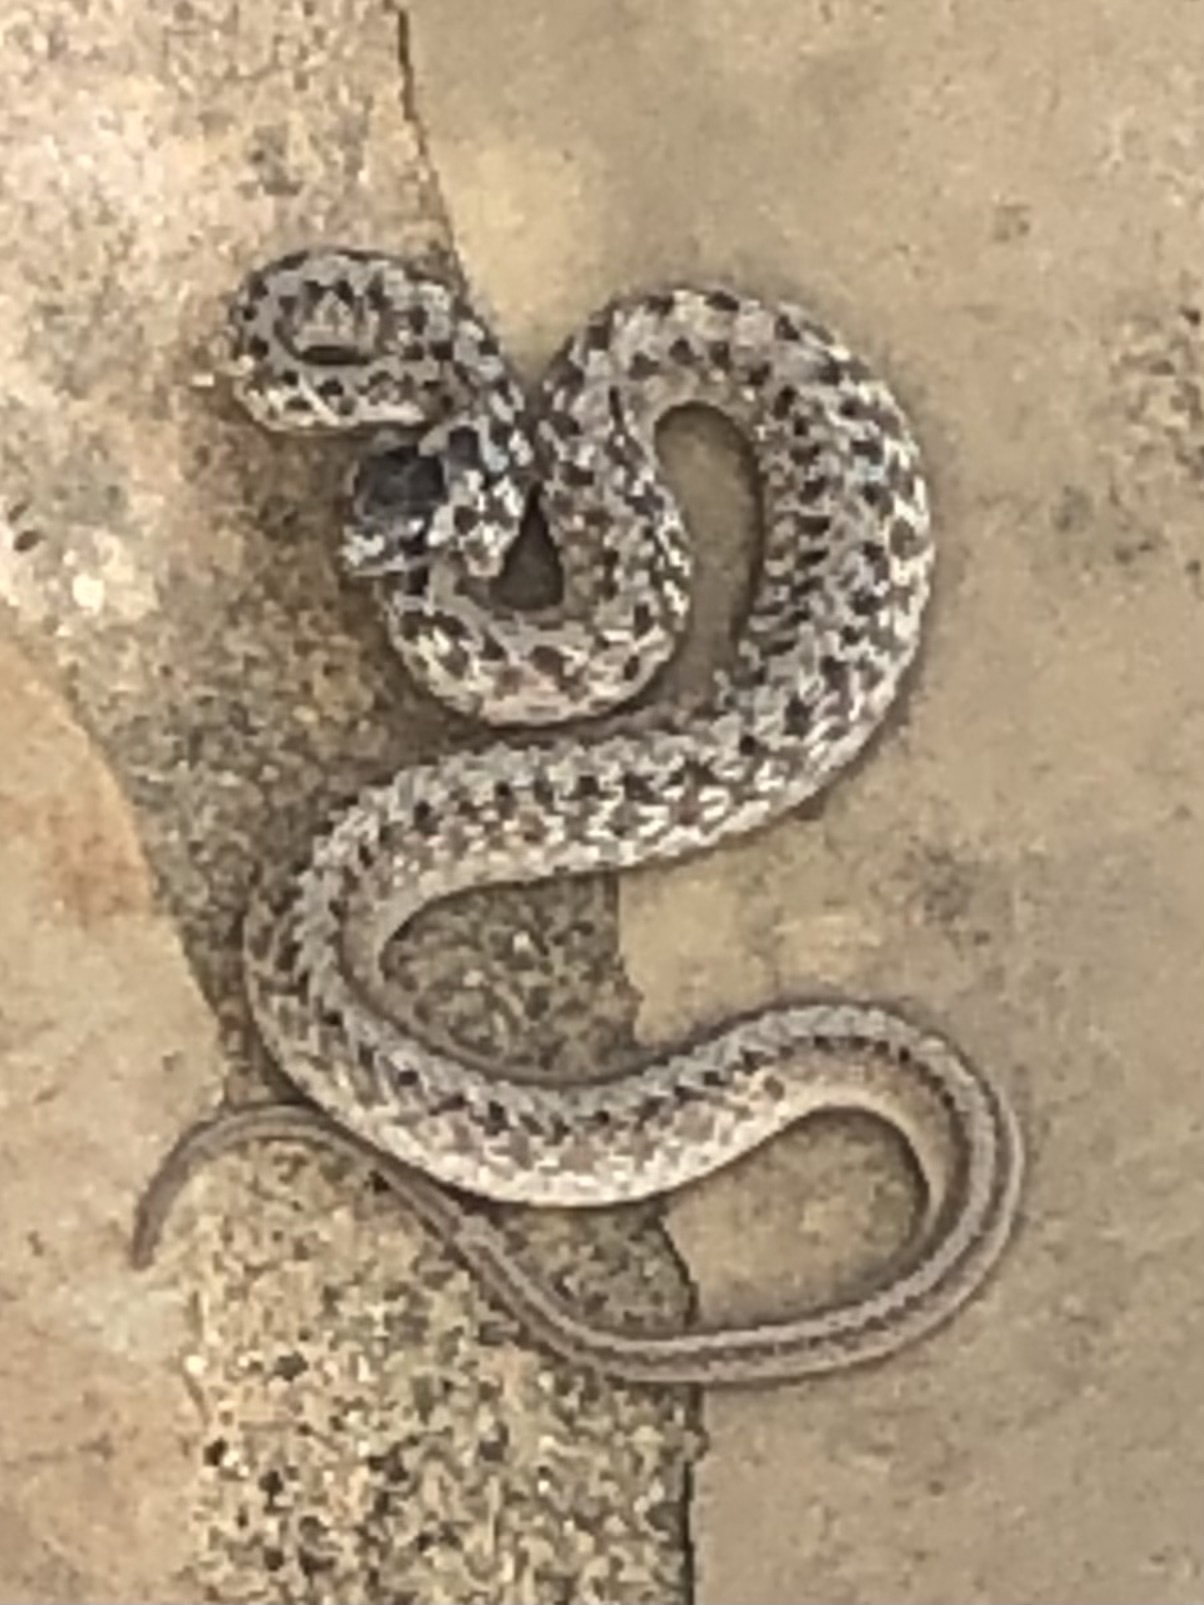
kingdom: Animalia
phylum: Chordata
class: Squamata
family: Colubridae
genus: Storeria
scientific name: Storeria dekayi
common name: (dekay’s) brown snake
